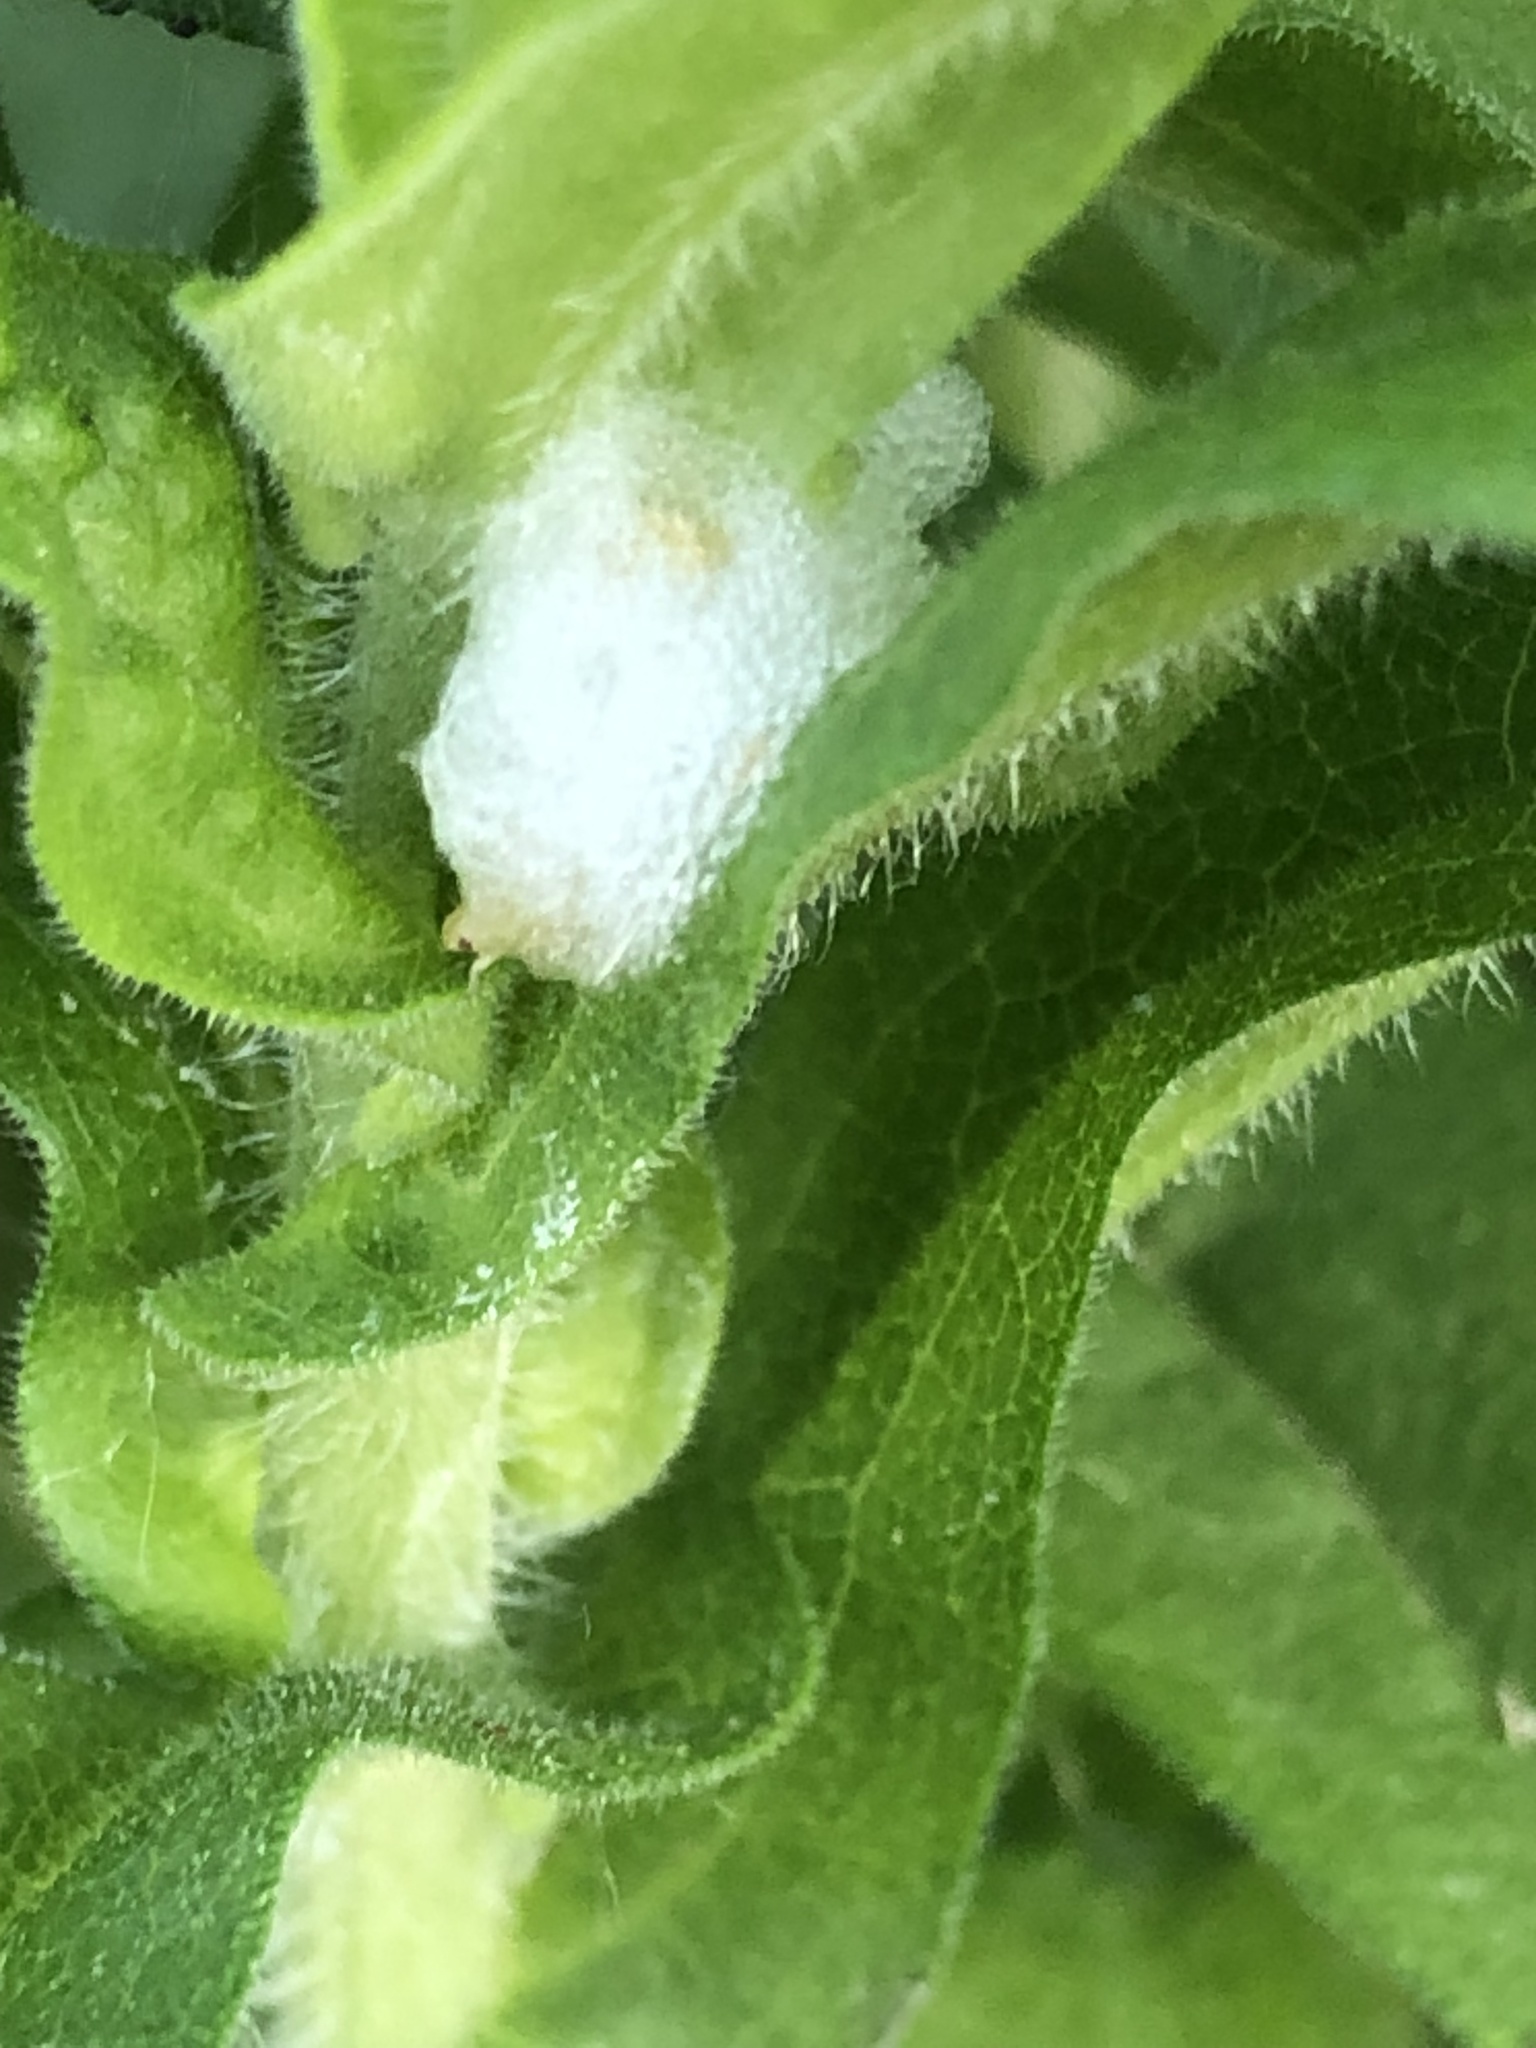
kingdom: Animalia
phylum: Arthropoda
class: Insecta
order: Hemiptera
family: Aphrophoridae
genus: Philaenus
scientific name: Philaenus spumarius
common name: Meadow spittlebug
